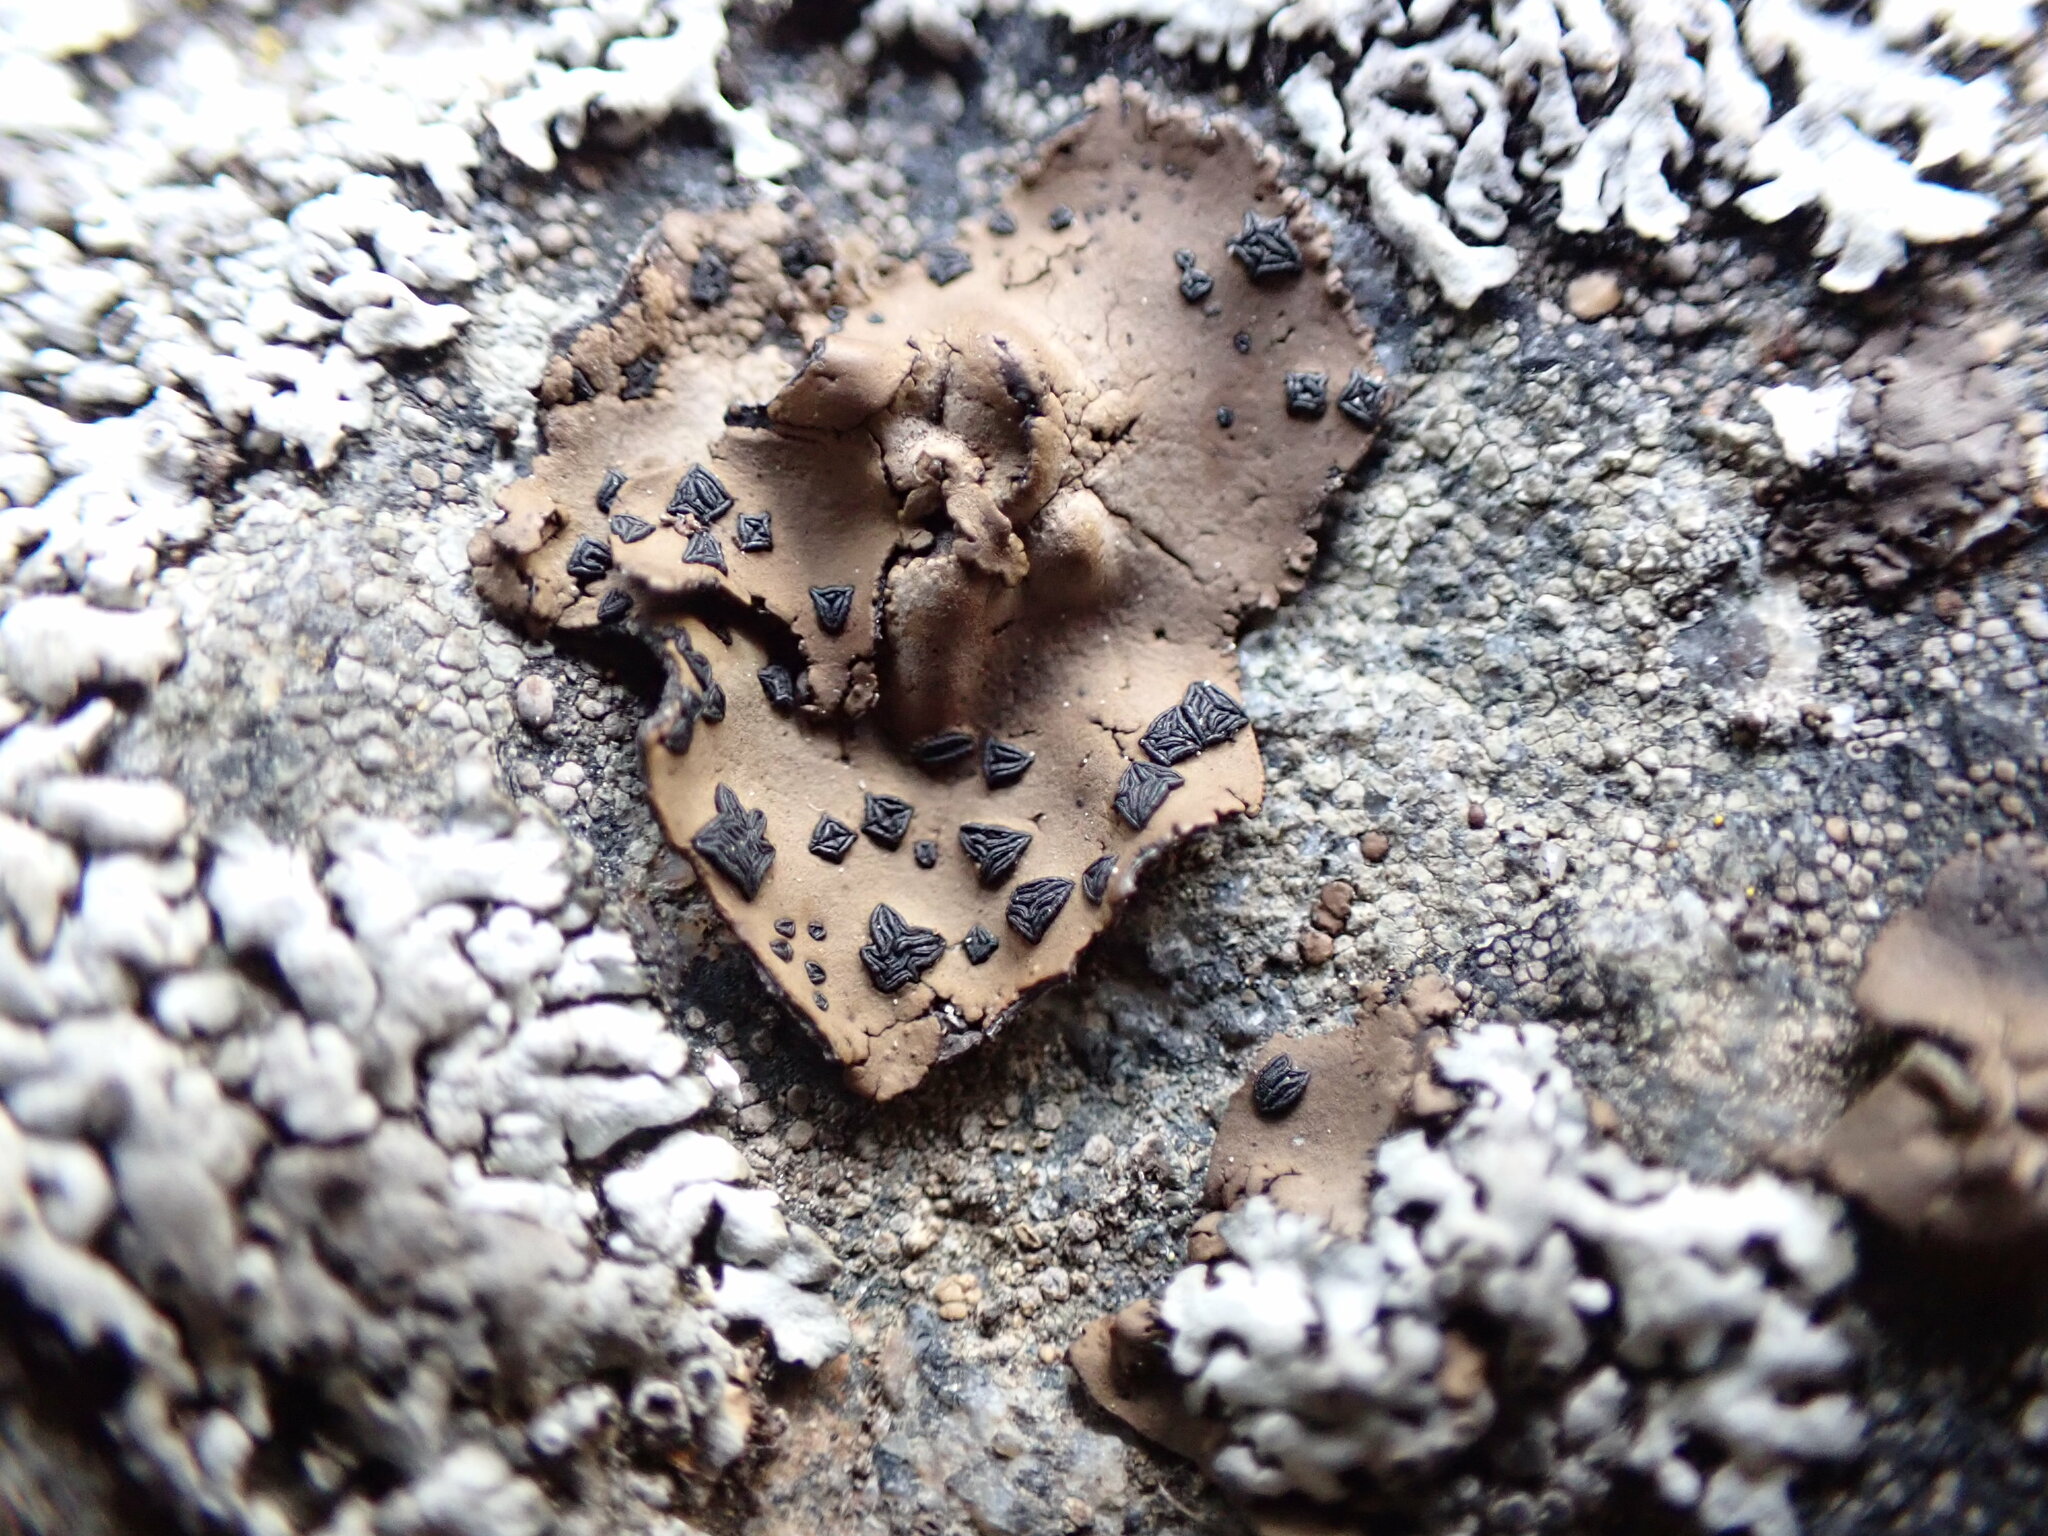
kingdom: Fungi
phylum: Ascomycota
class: Lecanoromycetes
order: Umbilicariales
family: Umbilicariaceae
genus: Umbilicaria
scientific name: Umbilicaria angulata
